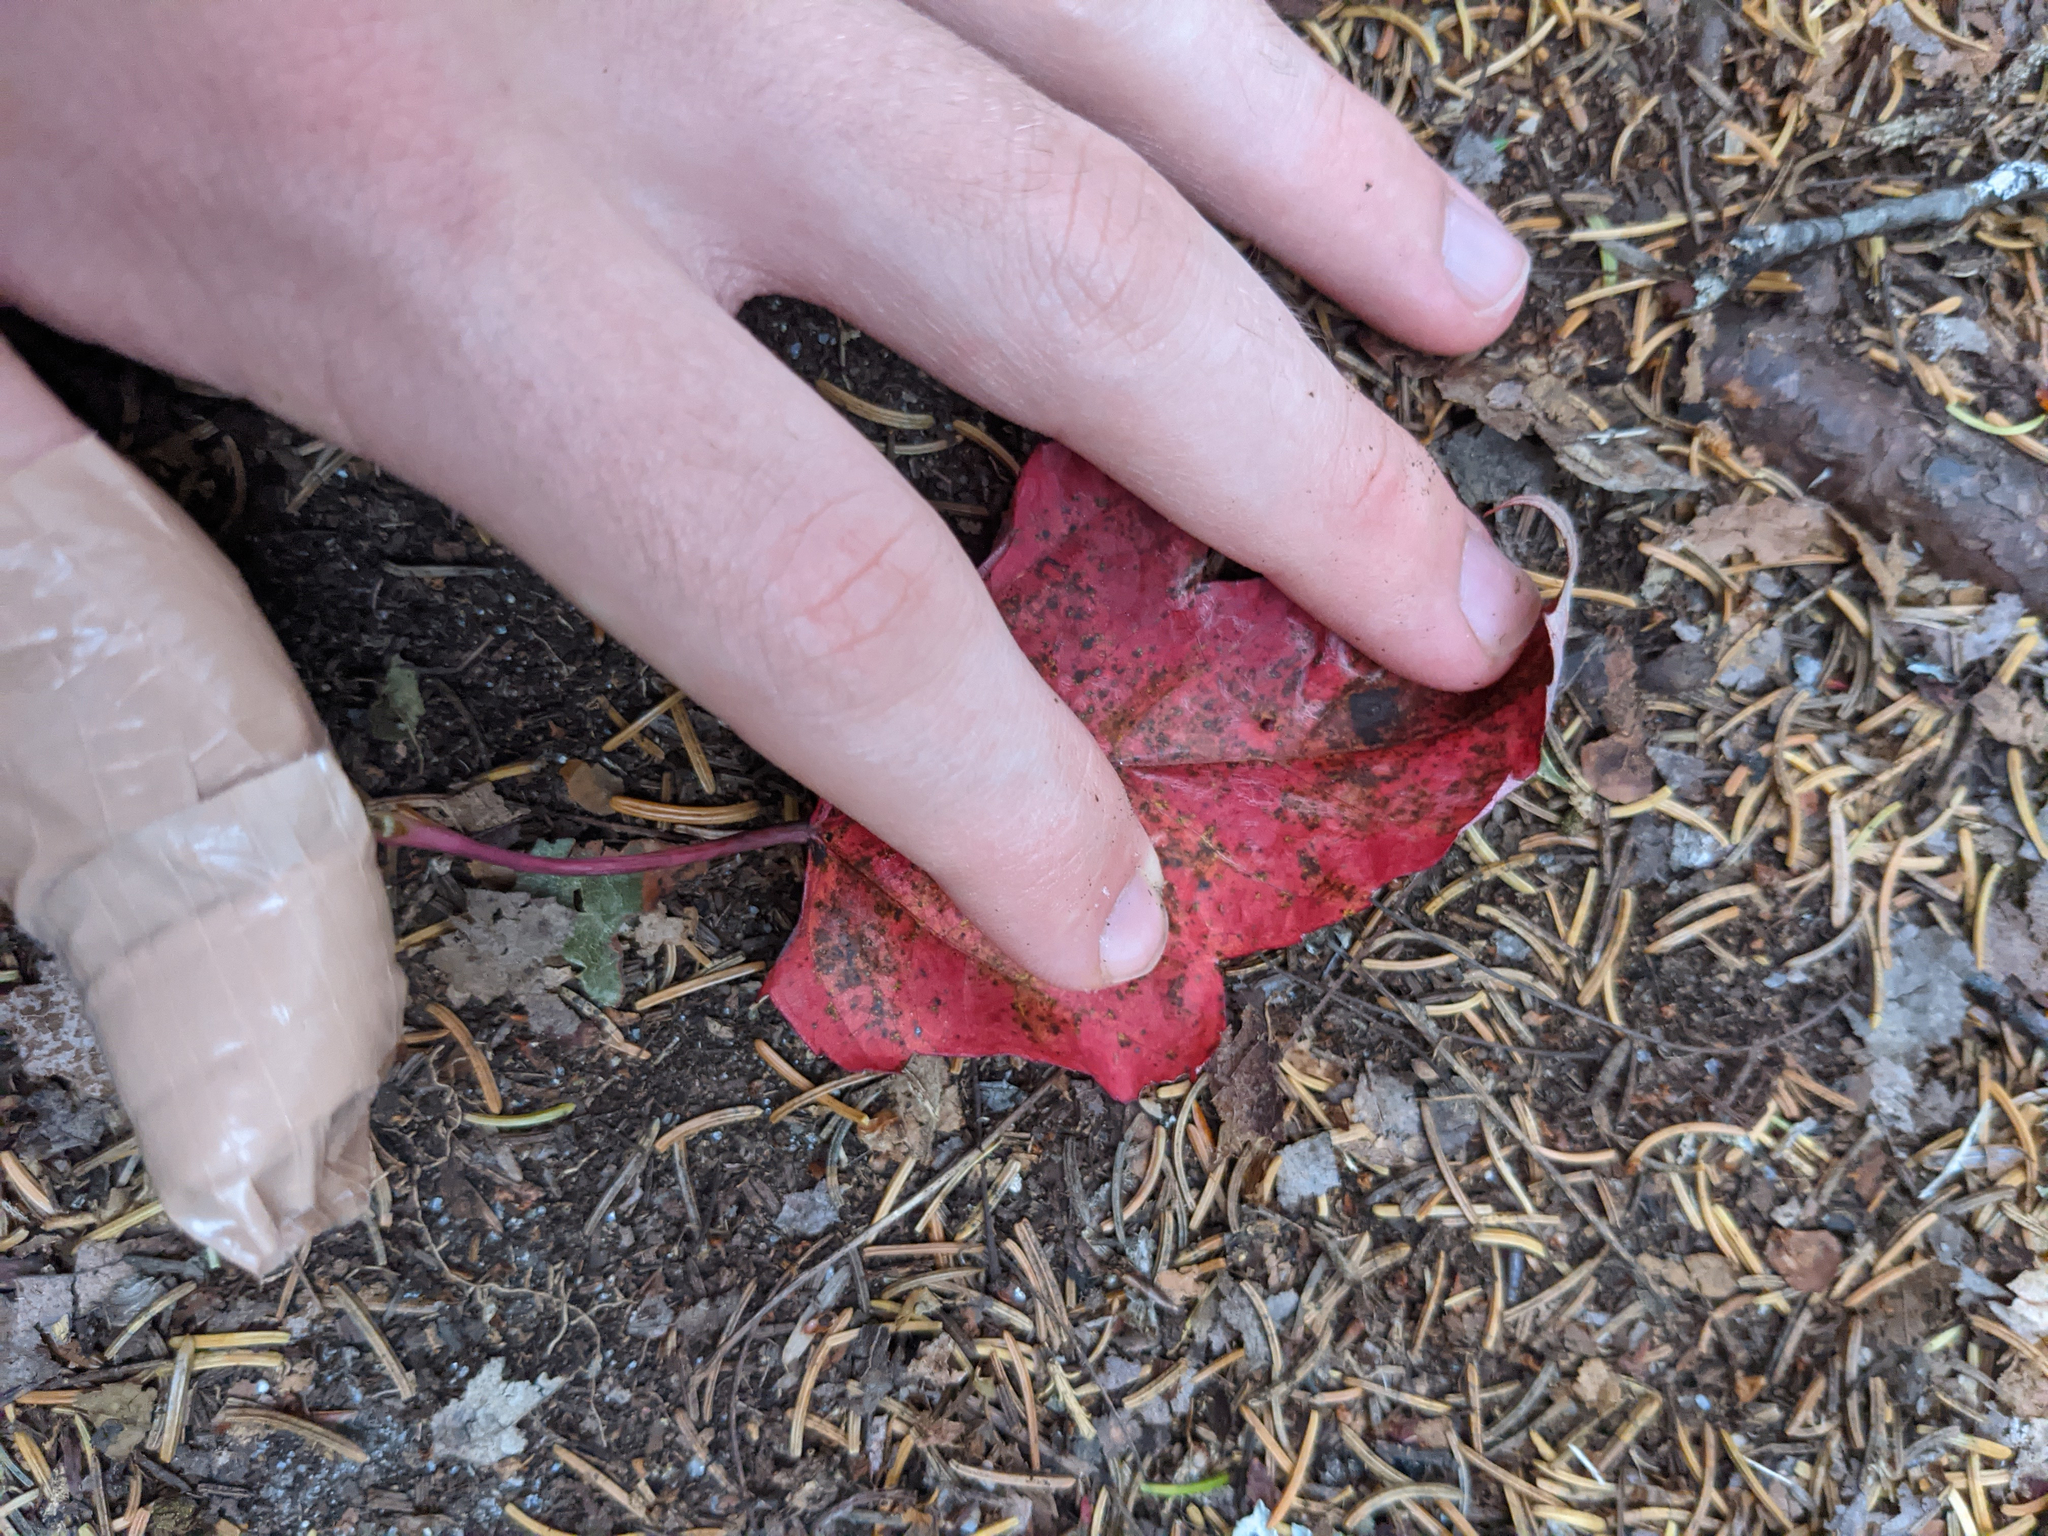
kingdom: Plantae
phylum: Tracheophyta
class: Magnoliopsida
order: Sapindales
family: Sapindaceae
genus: Acer
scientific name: Acer rubrum
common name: Red maple
